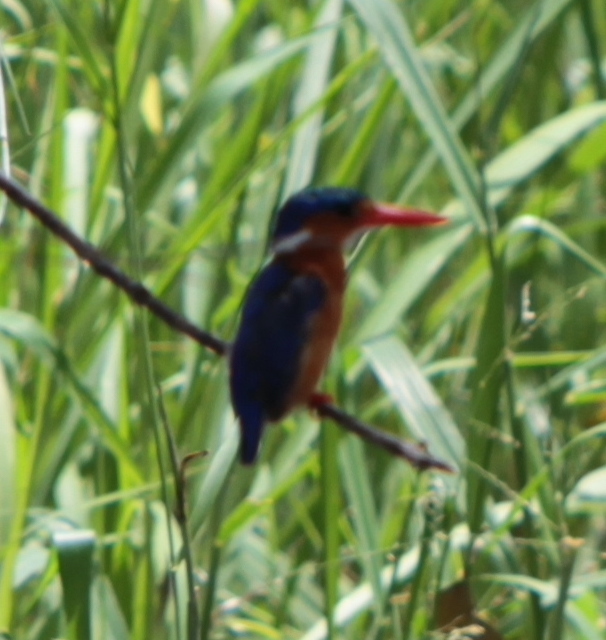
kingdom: Animalia
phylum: Chordata
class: Aves
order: Coraciiformes
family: Alcedinidae
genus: Corythornis
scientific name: Corythornis cristatus
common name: Malachite kingfisher
